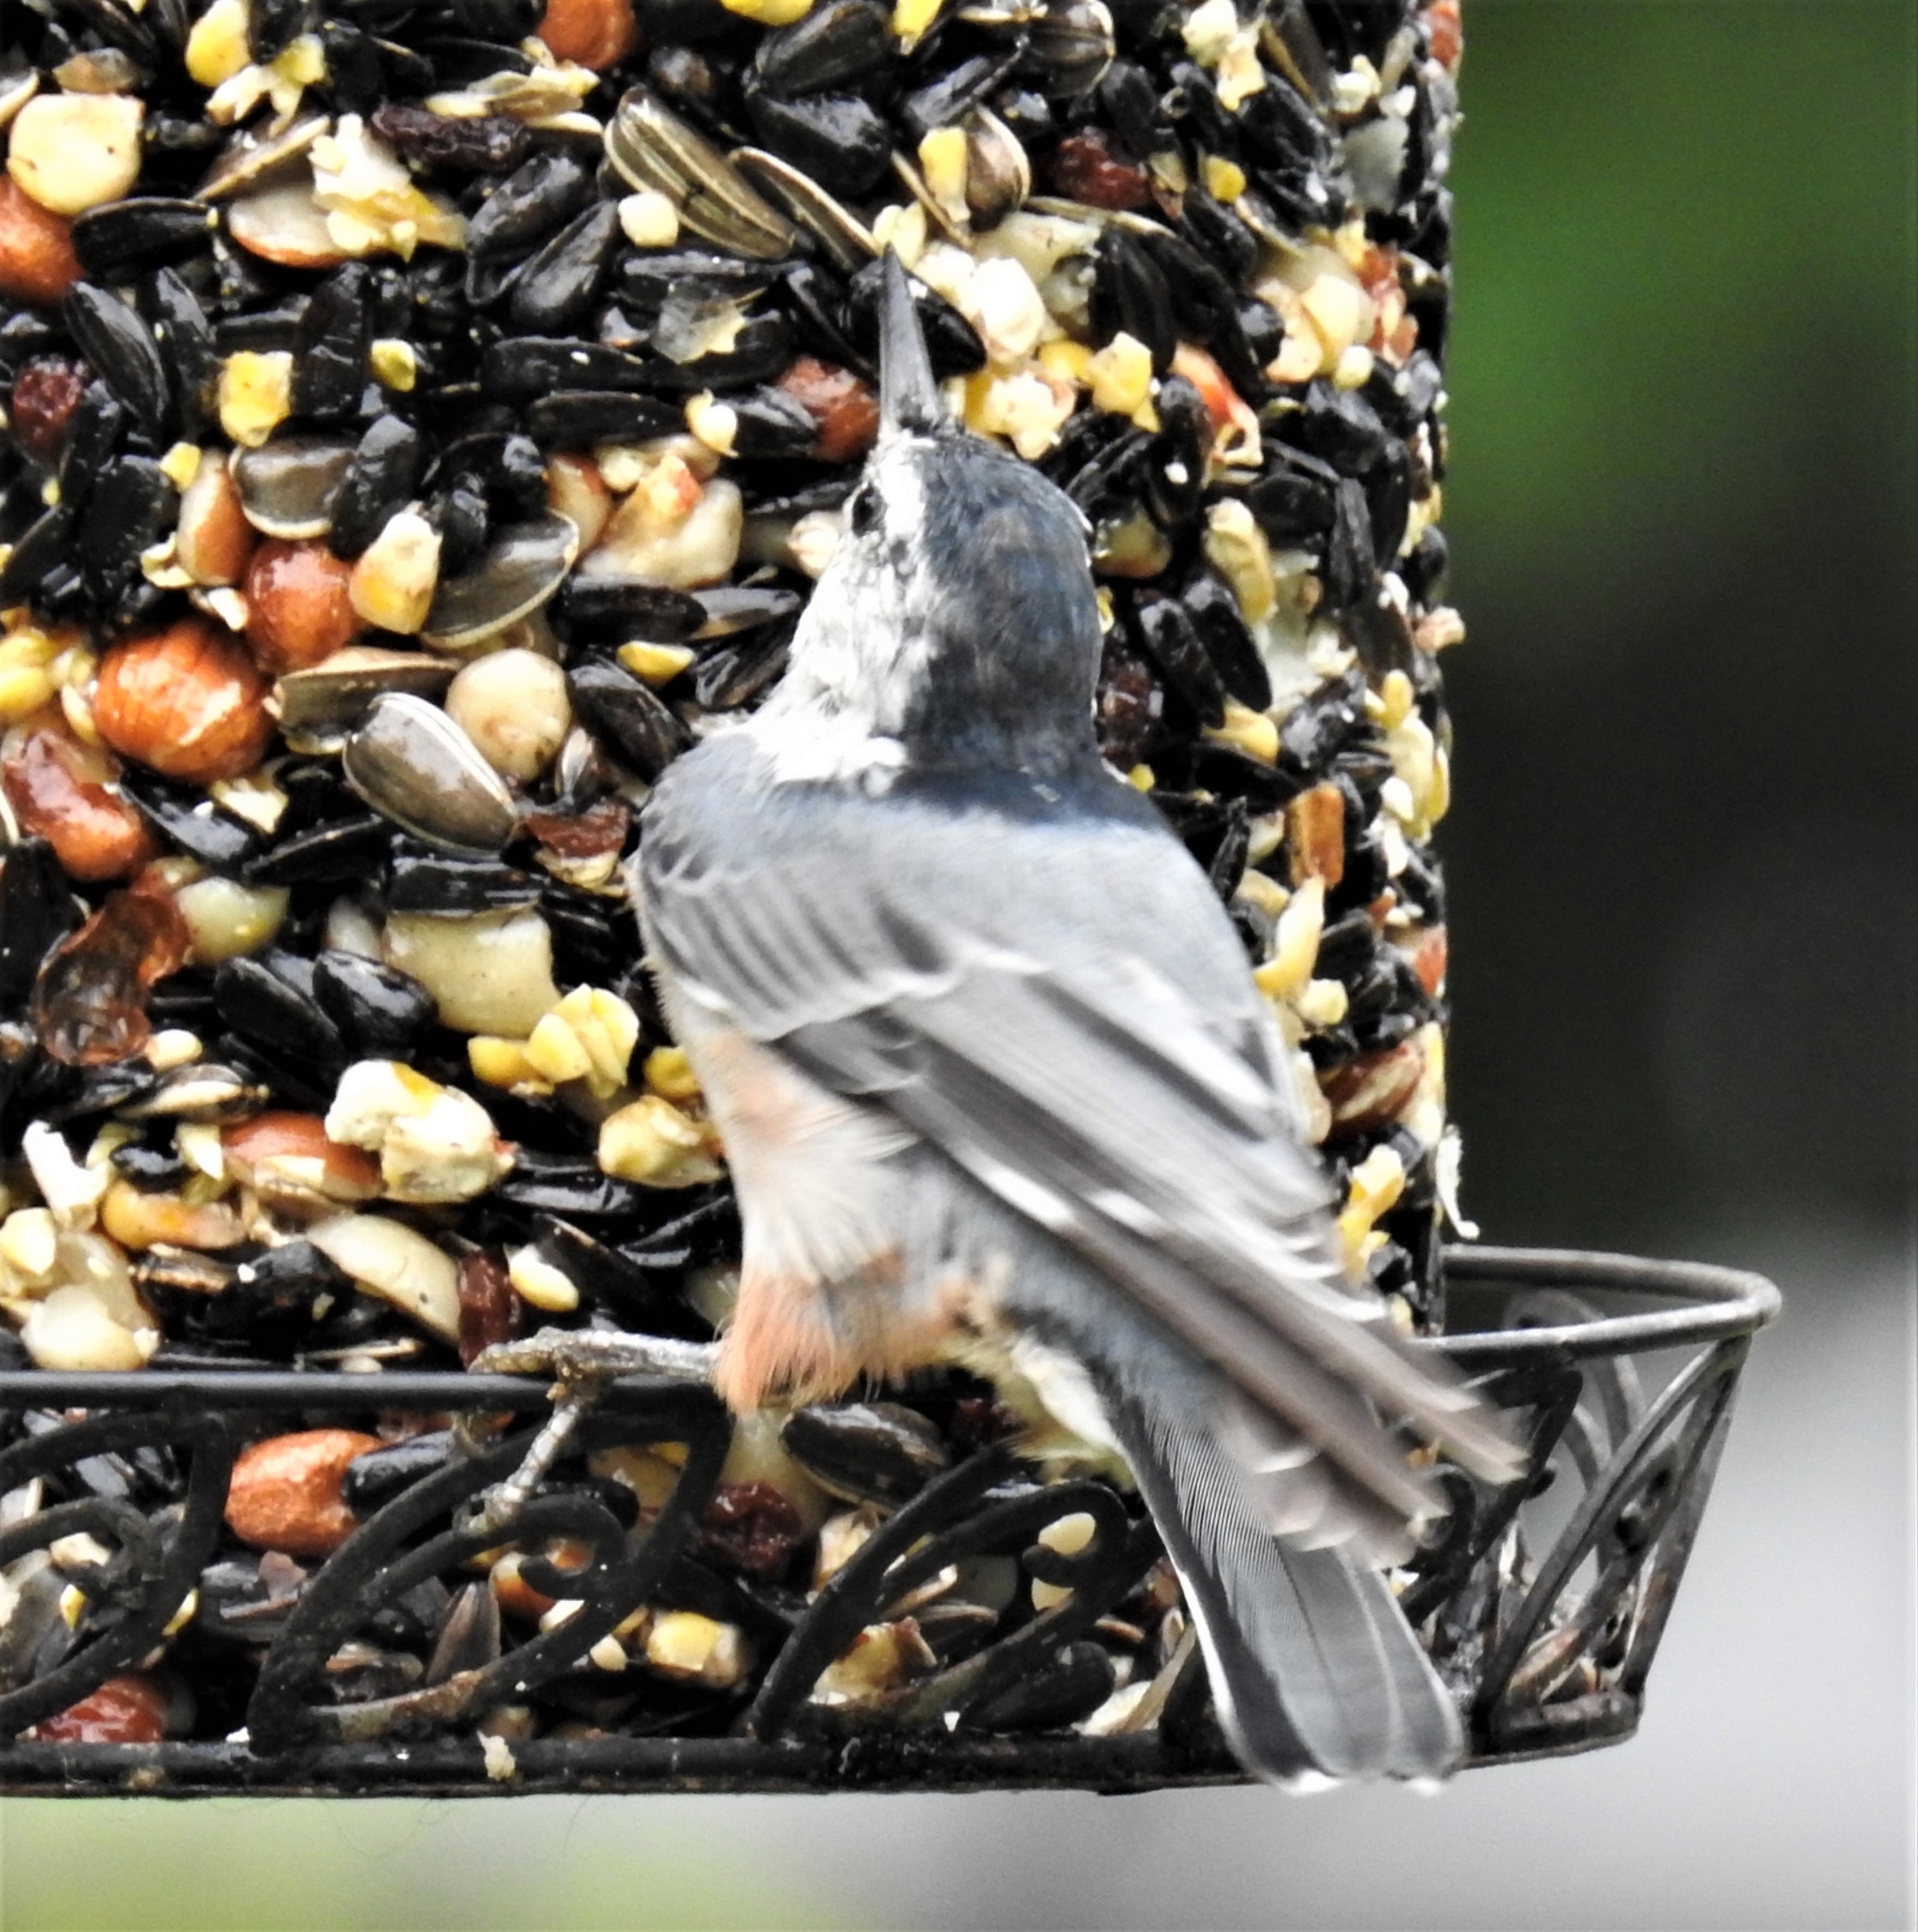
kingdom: Animalia
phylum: Chordata
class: Aves
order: Passeriformes
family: Sittidae
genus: Sitta
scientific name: Sitta carolinensis
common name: White-breasted nuthatch
